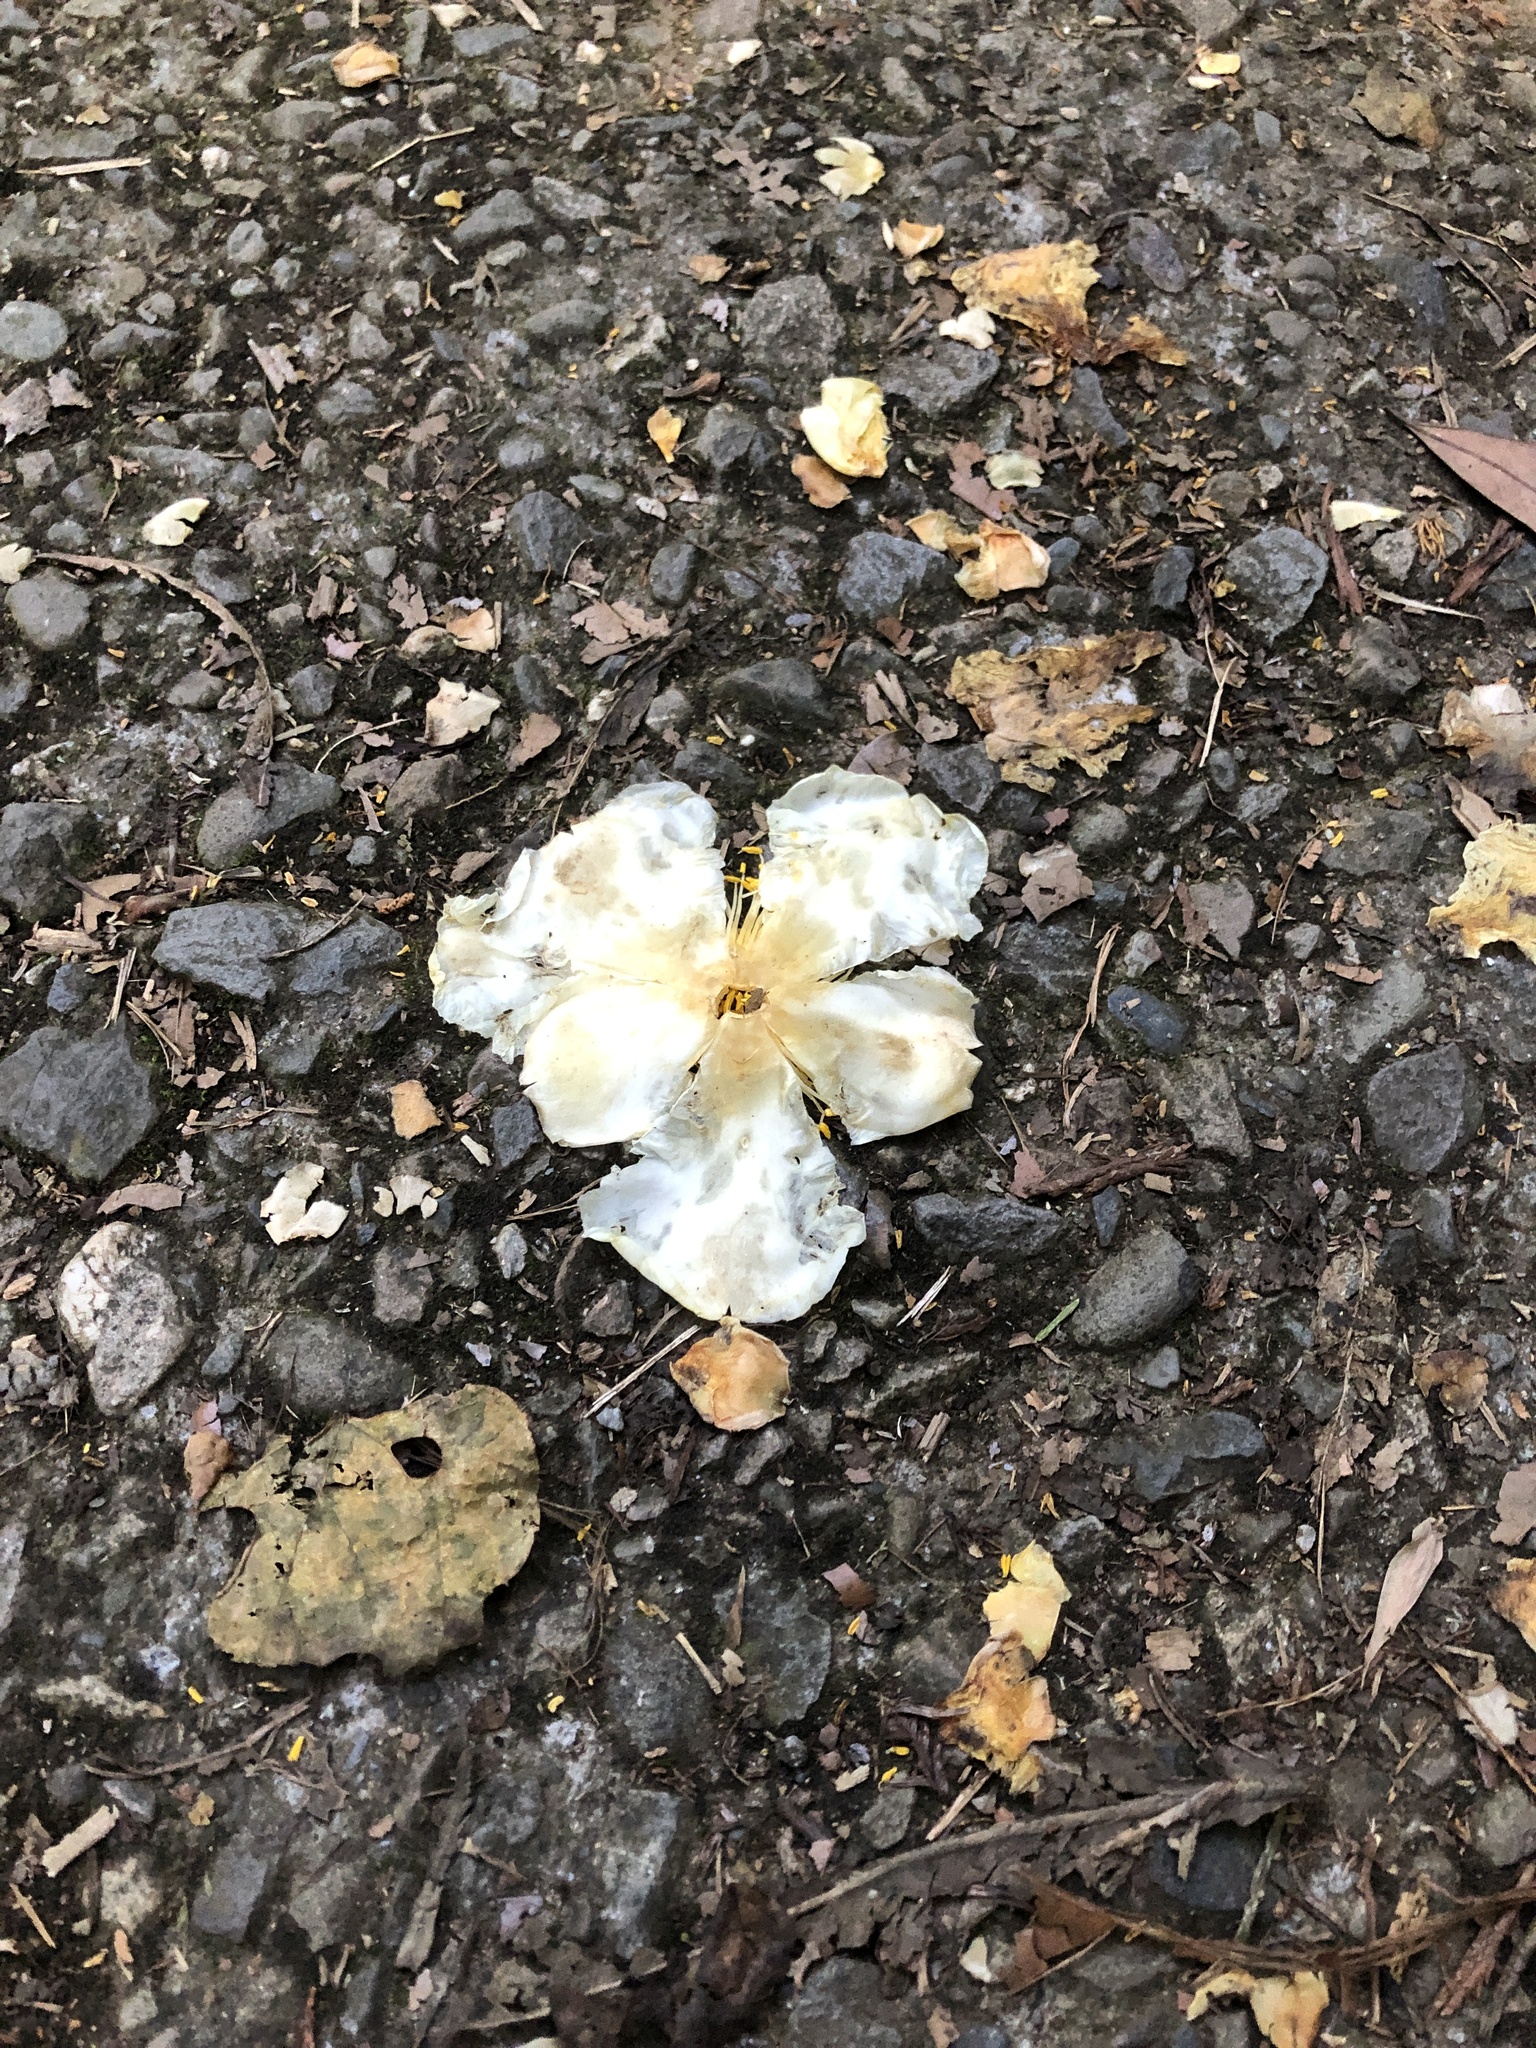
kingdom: Plantae
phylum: Tracheophyta
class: Magnoliopsida
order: Ericales
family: Theaceae
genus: Polyspora
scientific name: Polyspora axillaris
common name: Fried egg tree
